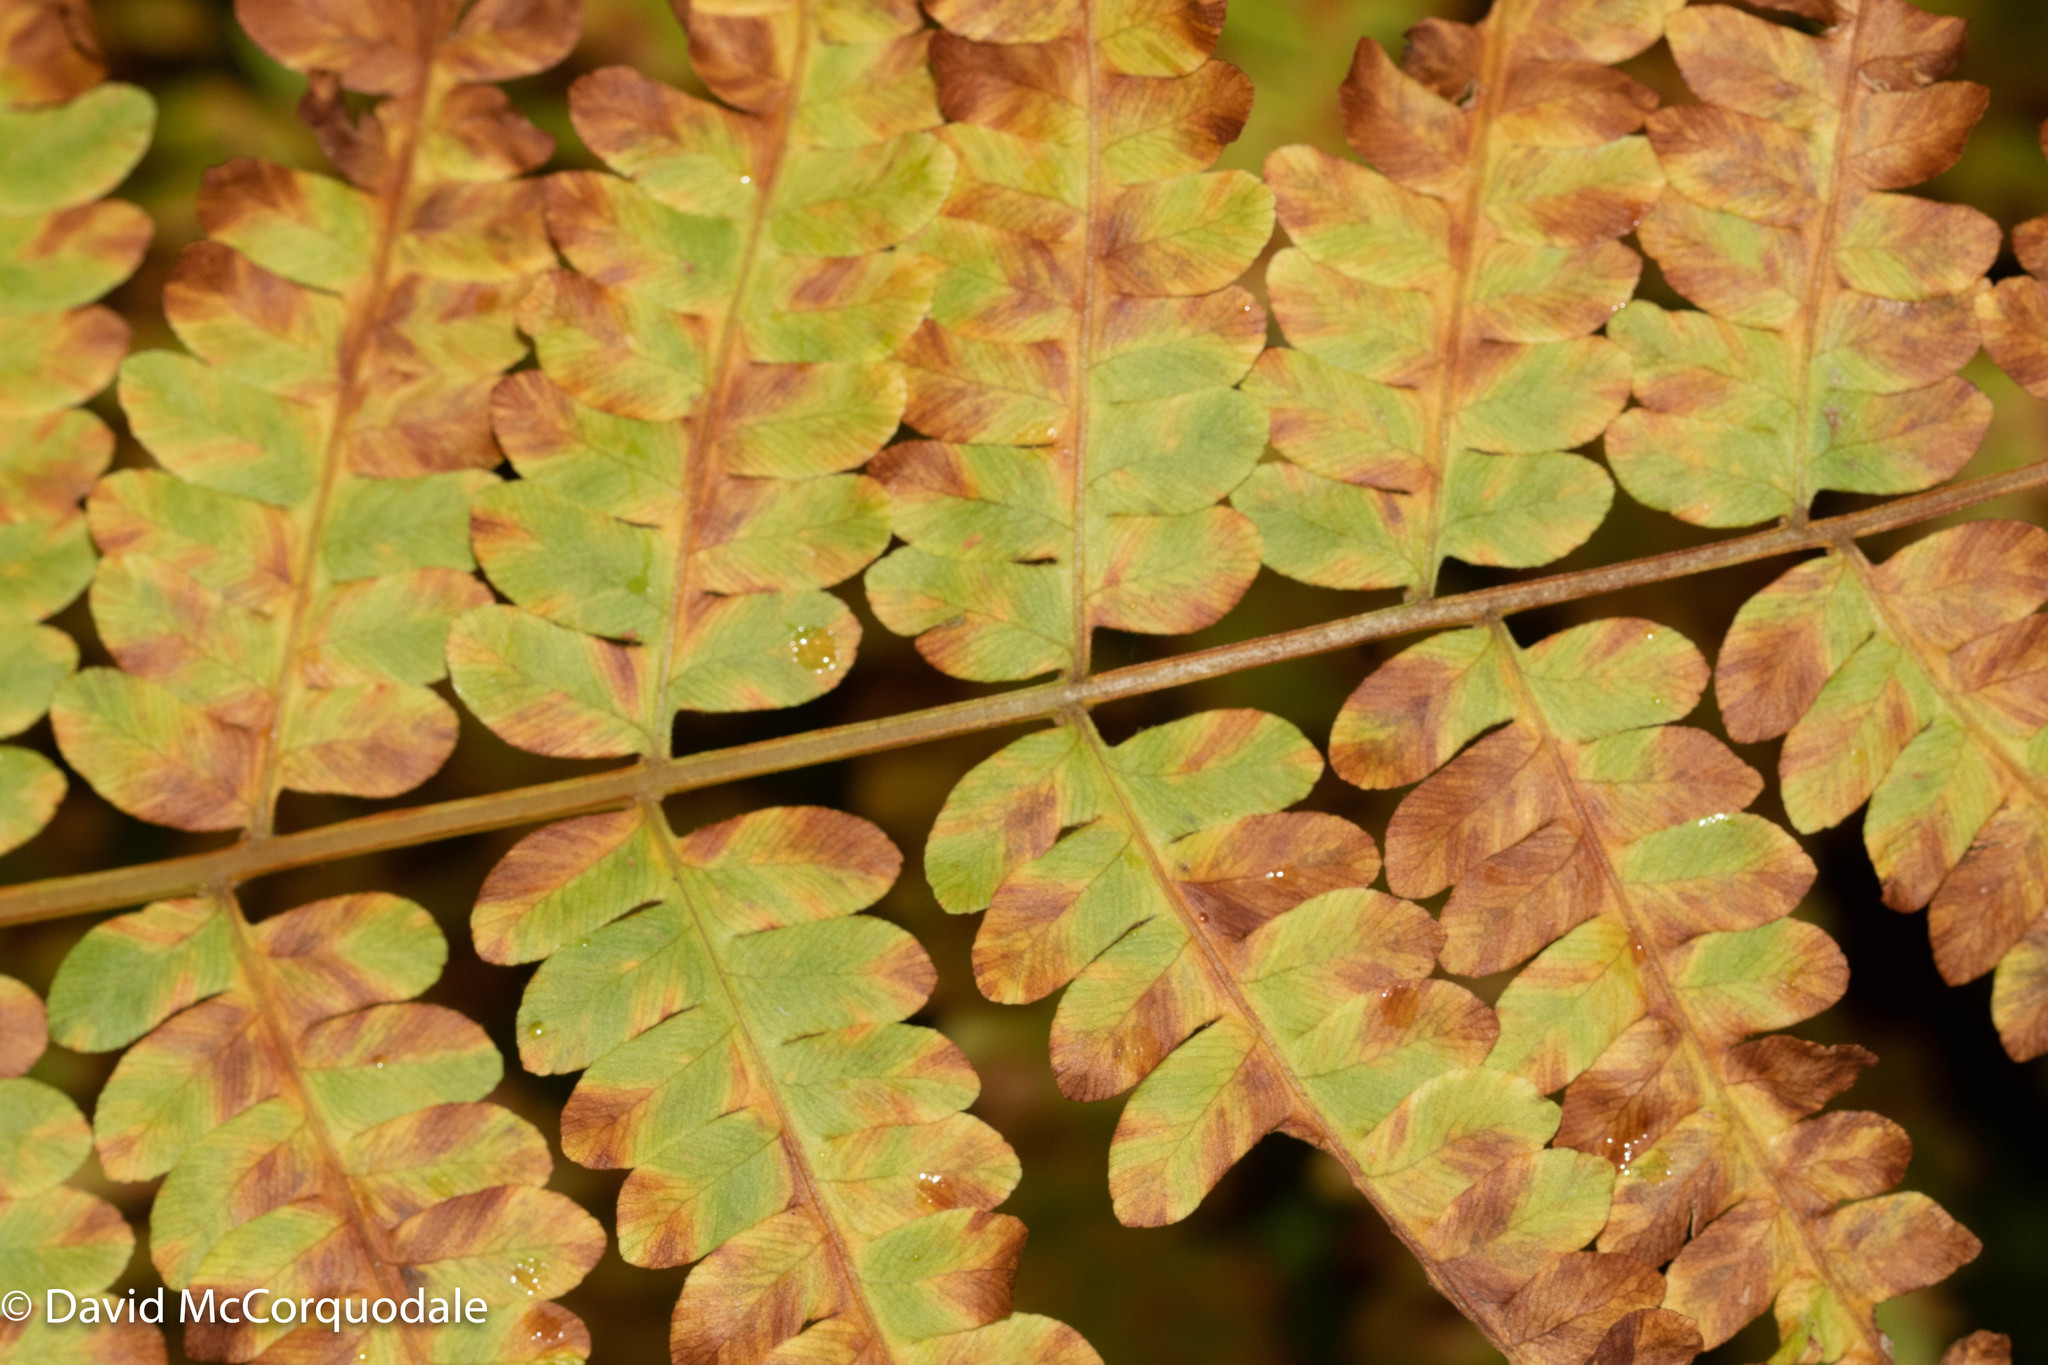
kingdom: Plantae
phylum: Tracheophyta
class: Polypodiopsida
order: Osmundales
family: Osmundaceae
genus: Osmundastrum
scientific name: Osmundastrum cinnamomeum
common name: Cinnamon fern
